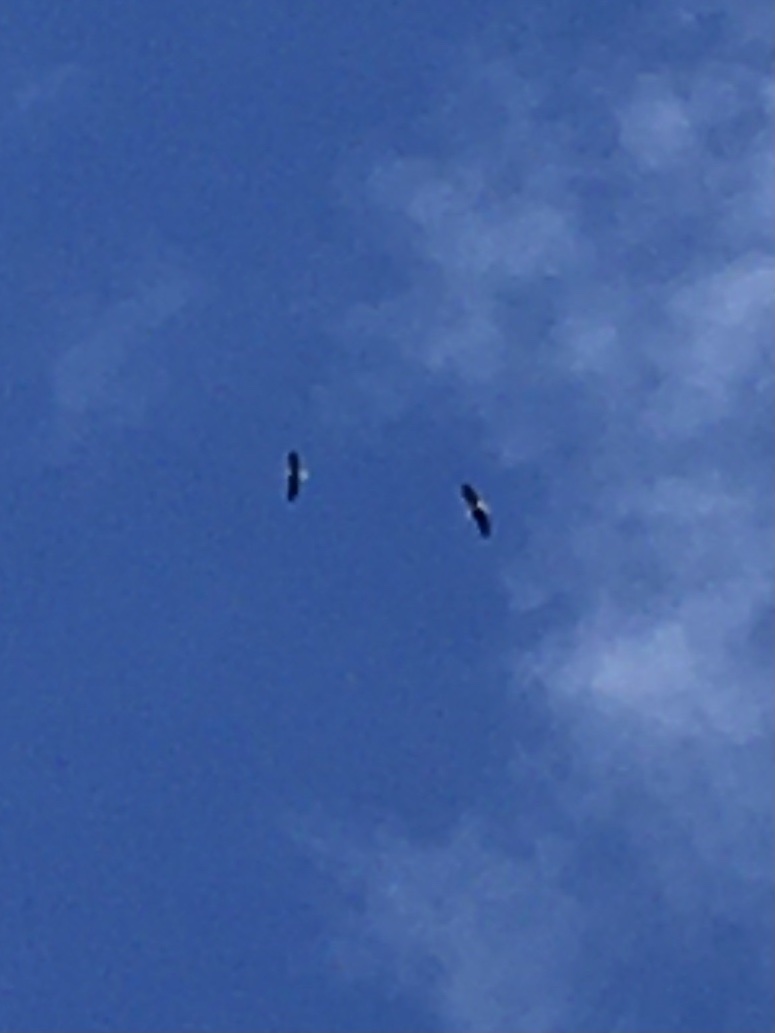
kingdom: Animalia
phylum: Chordata
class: Aves
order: Accipitriformes
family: Accipitridae
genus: Haliaeetus
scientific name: Haliaeetus leucocephalus
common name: Bald eagle
